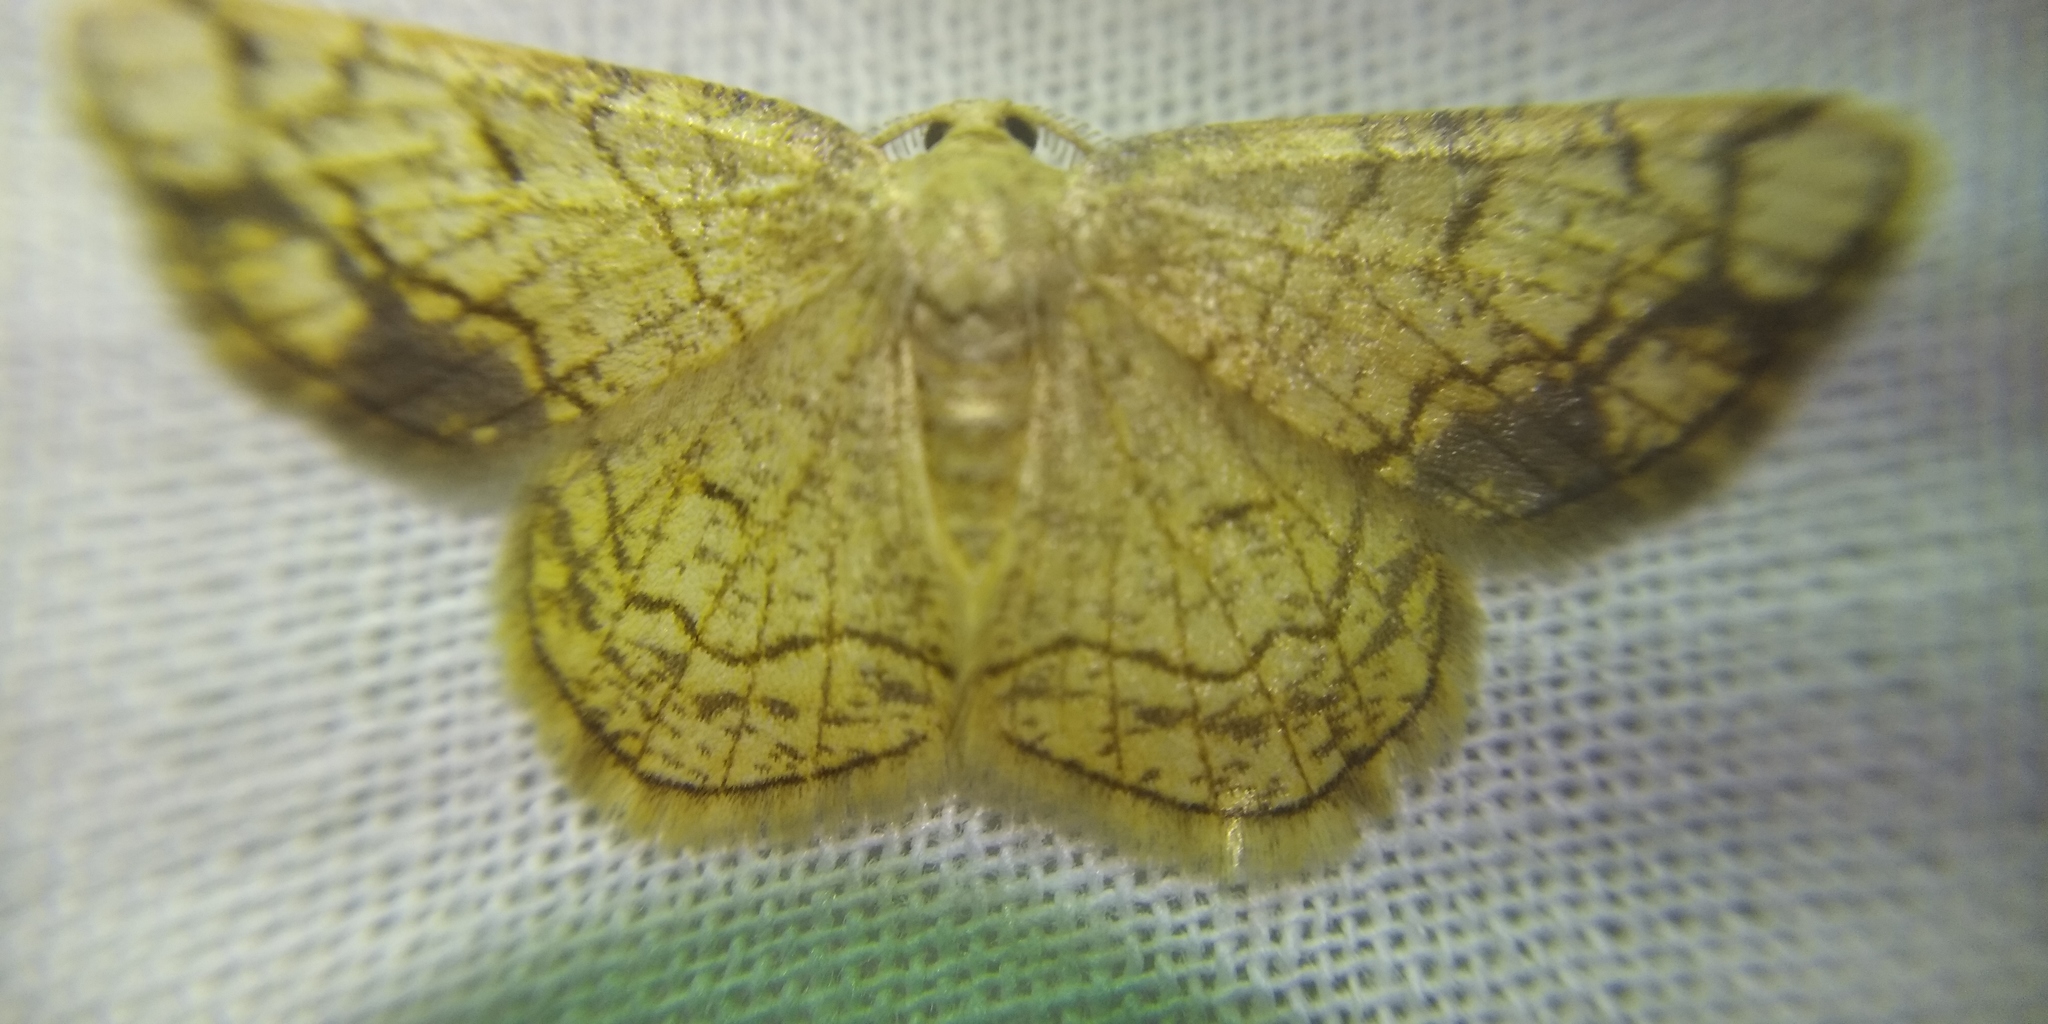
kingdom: Animalia
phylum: Arthropoda
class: Insecta
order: Lepidoptera
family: Geometridae
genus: Stegania
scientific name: Stegania dilectaria
